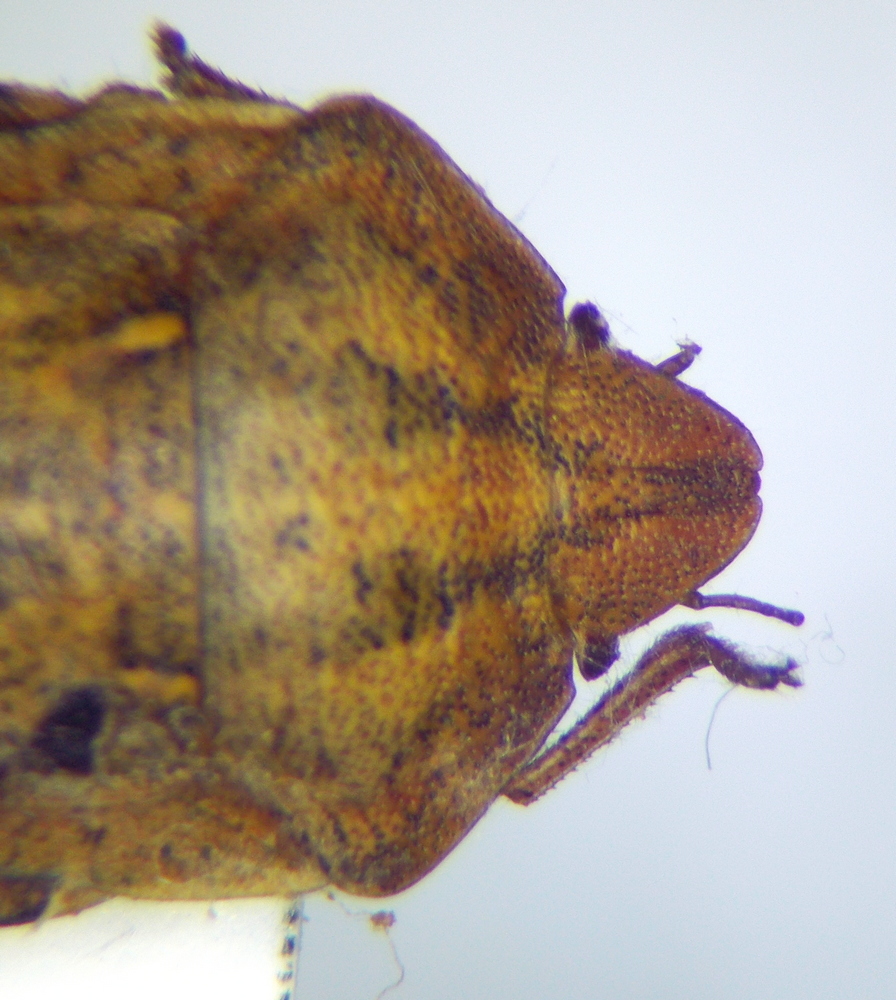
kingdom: Animalia
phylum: Arthropoda
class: Insecta
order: Hemiptera
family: Scutelleridae
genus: Eurygaster
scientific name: Eurygaster testudinaria
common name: Tortoise bug
